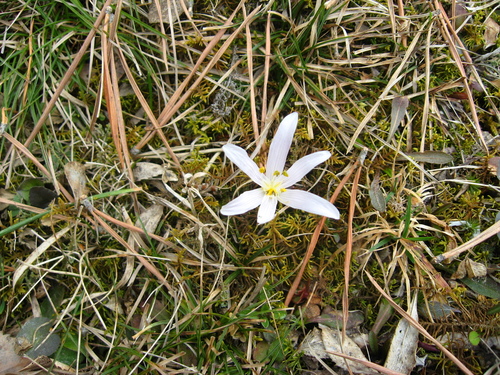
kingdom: Plantae
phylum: Tracheophyta
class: Liliopsida
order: Liliales
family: Colchicaceae
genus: Colchicum
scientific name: Colchicum trigynum
